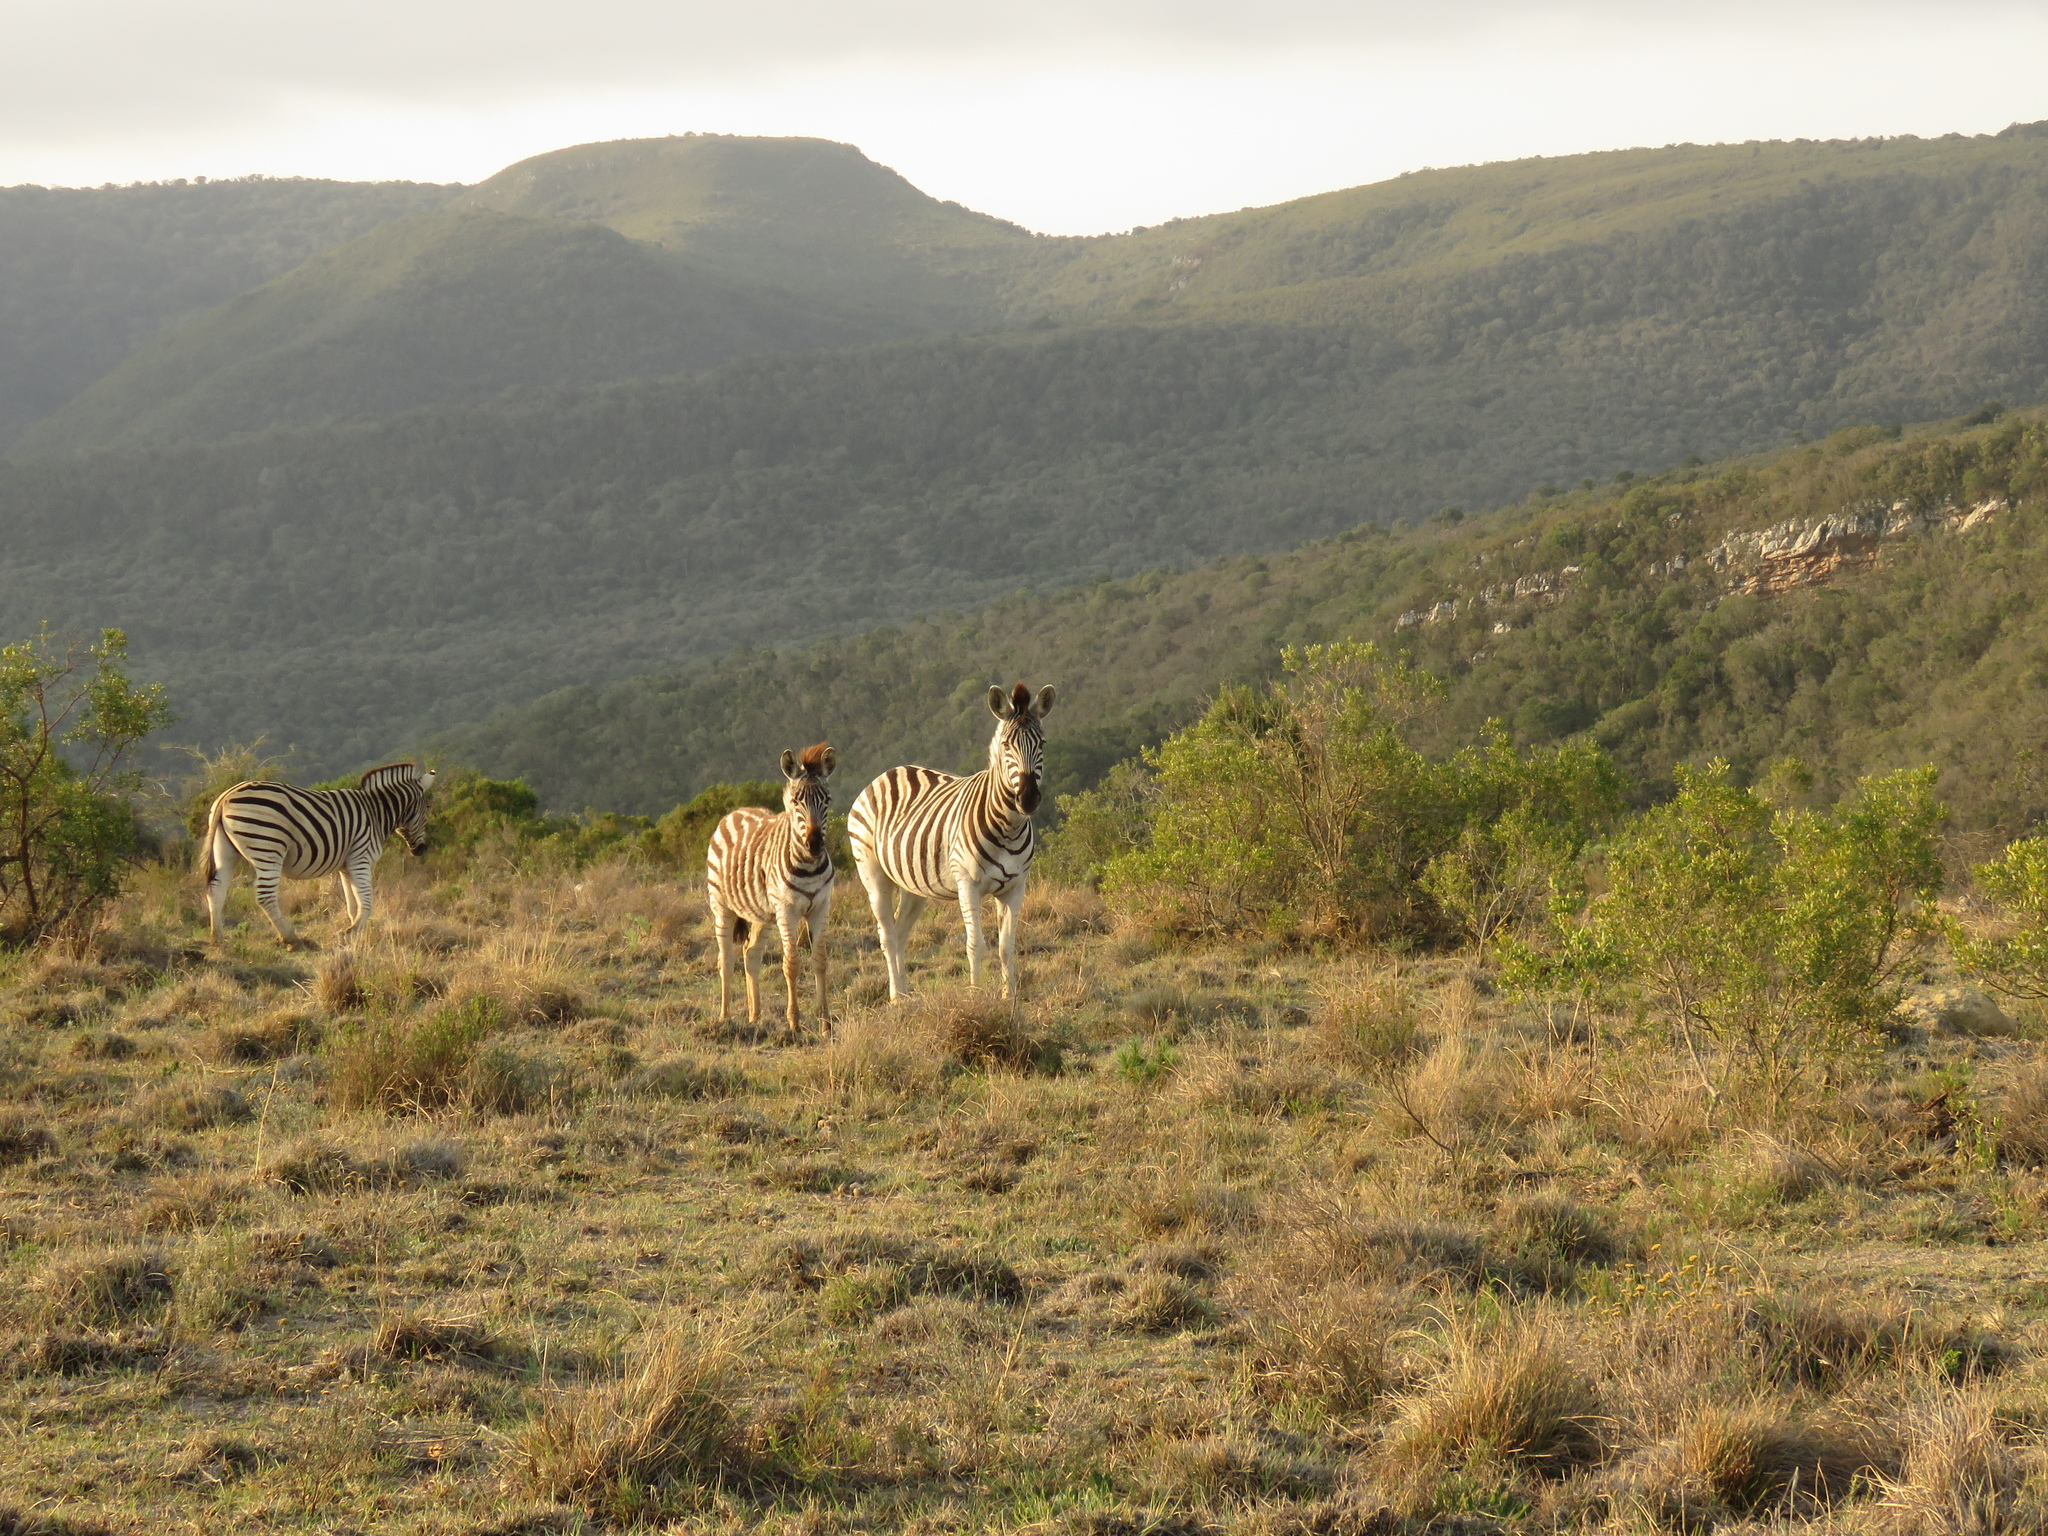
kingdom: Animalia
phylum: Chordata
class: Mammalia
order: Perissodactyla
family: Equidae
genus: Equus
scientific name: Equus quagga
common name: Plains zebra
